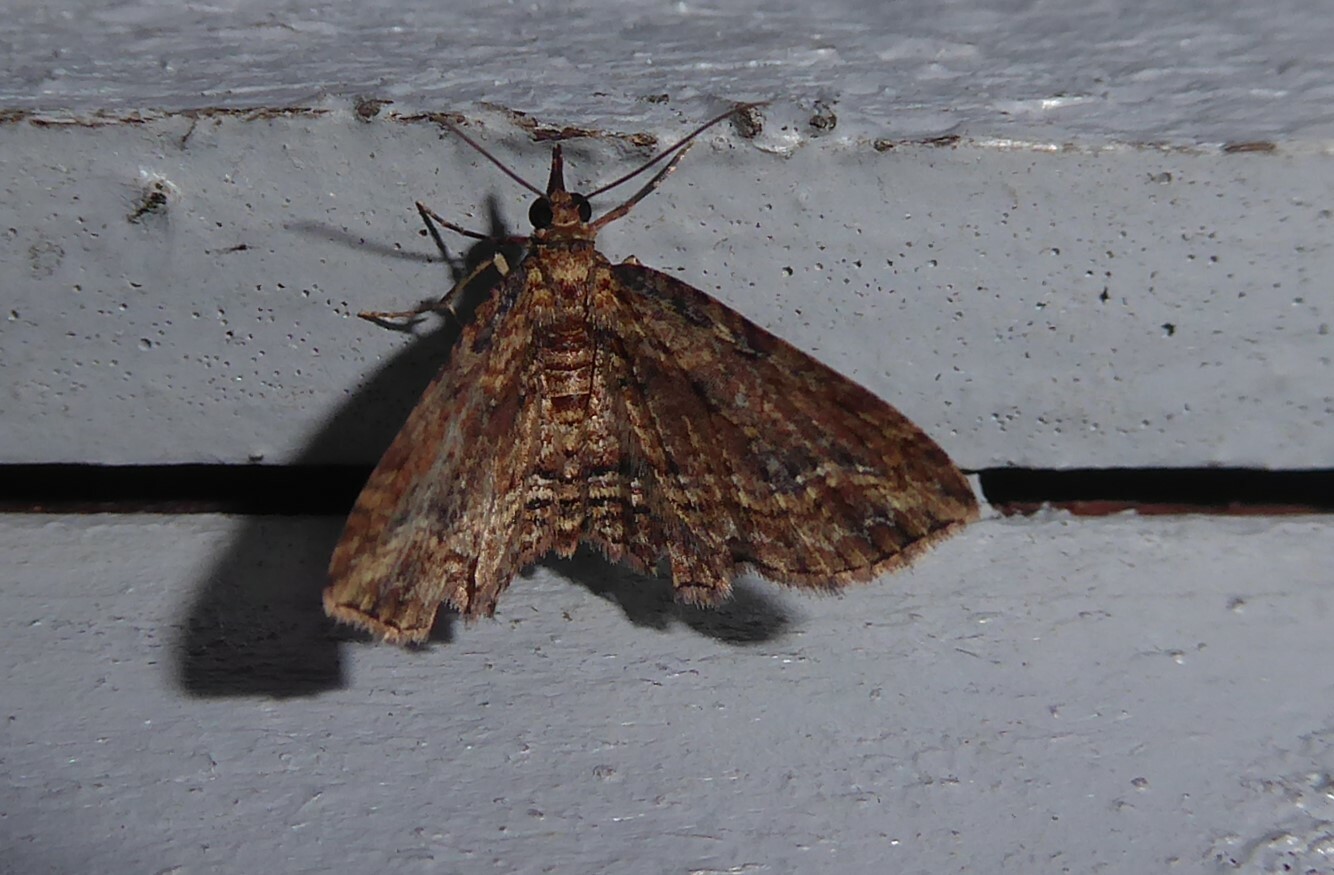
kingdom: Animalia
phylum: Arthropoda
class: Insecta
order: Lepidoptera
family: Geometridae
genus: Chloroclystis
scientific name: Chloroclystis filata
